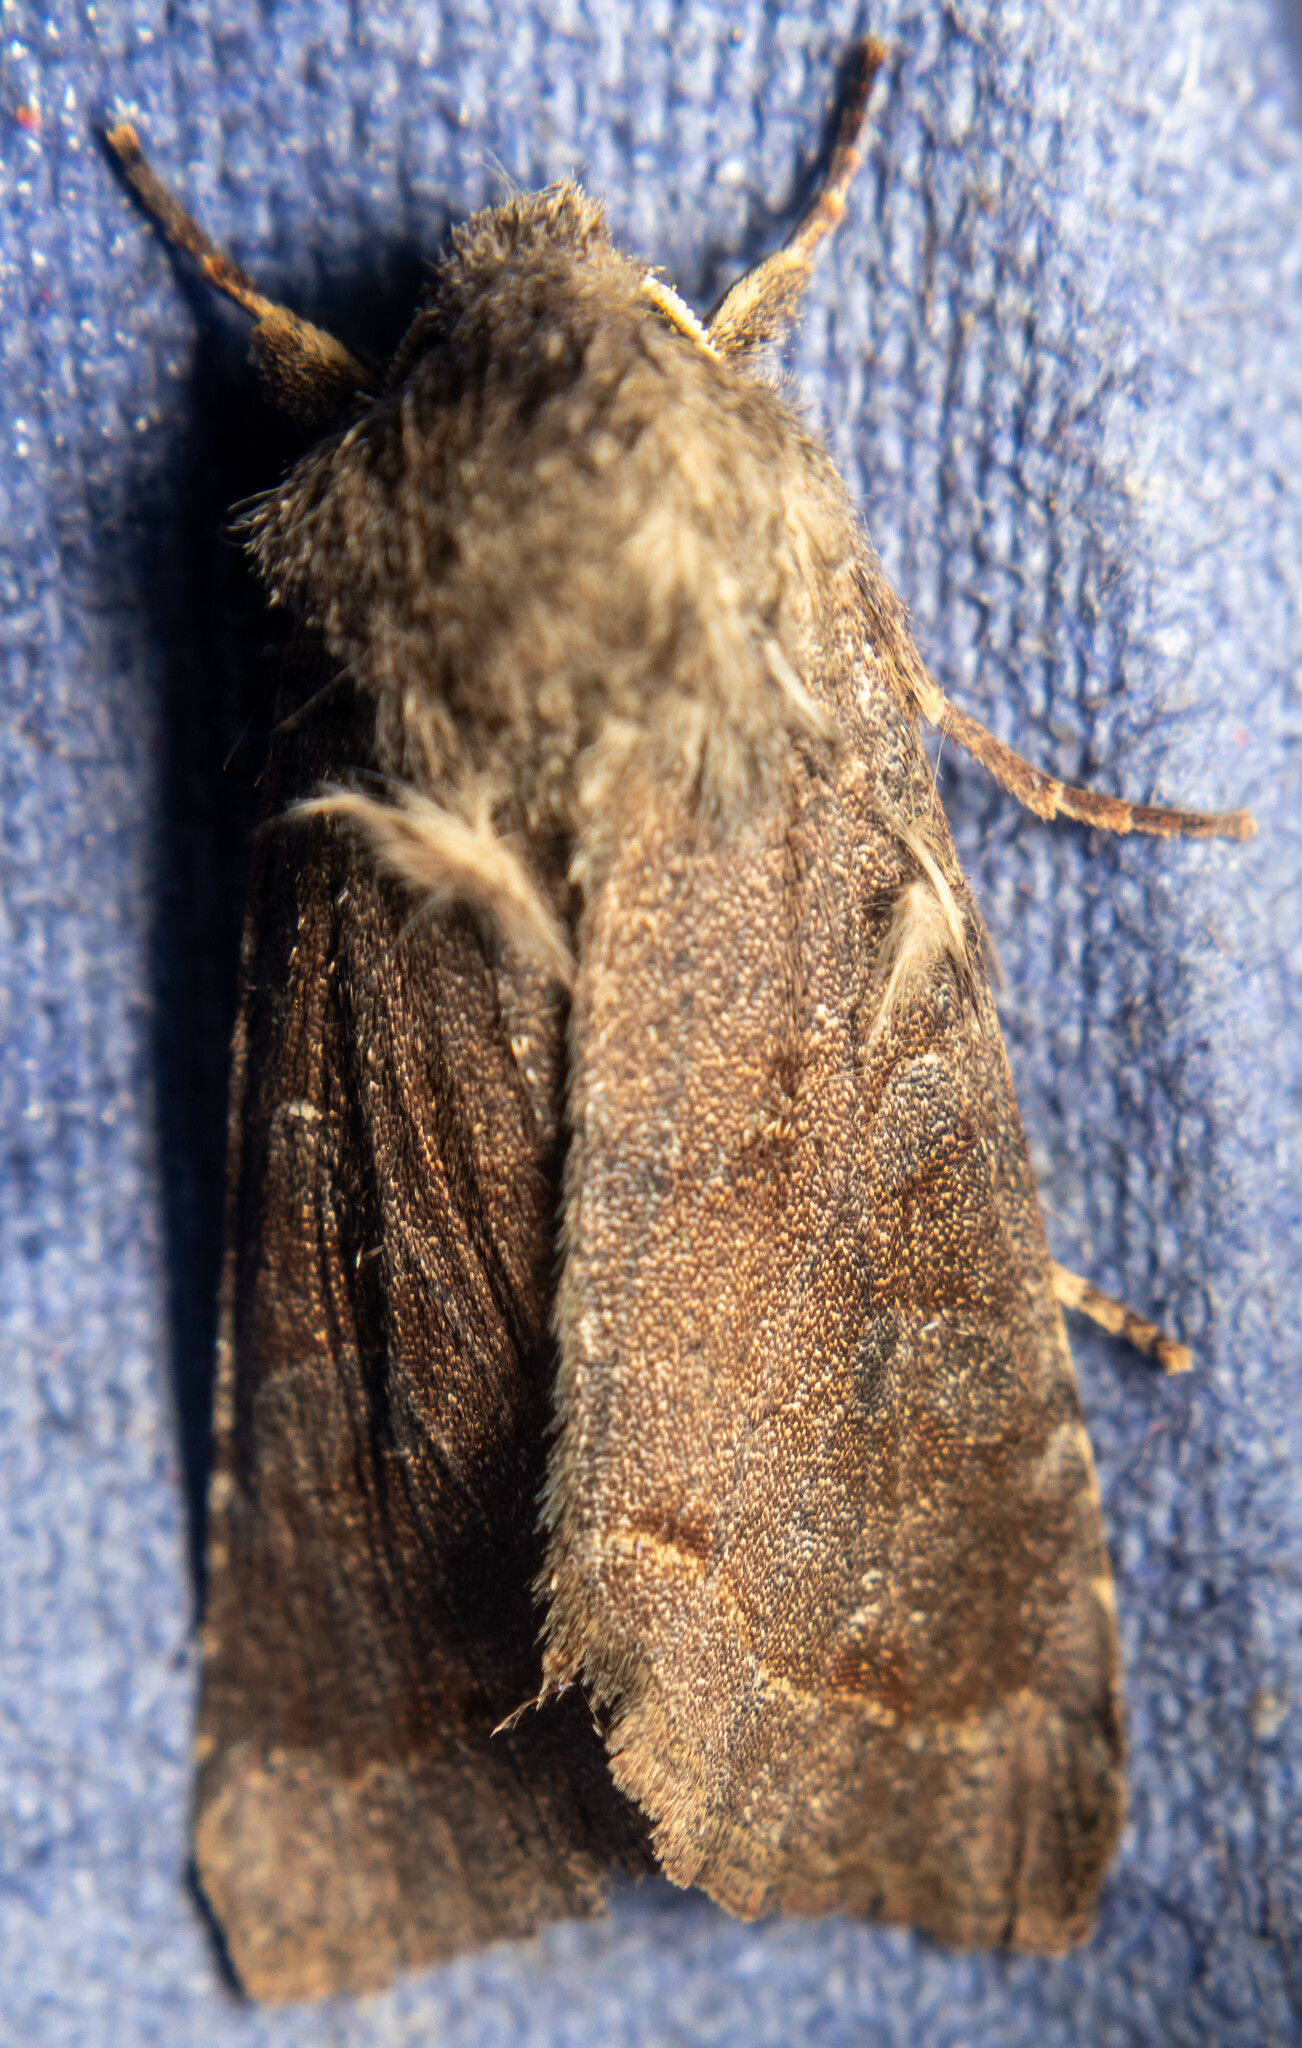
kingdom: Animalia
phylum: Arthropoda
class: Insecta
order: Lepidoptera
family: Noctuidae
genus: Orthosia
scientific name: Orthosia incerta
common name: Clouded drab
